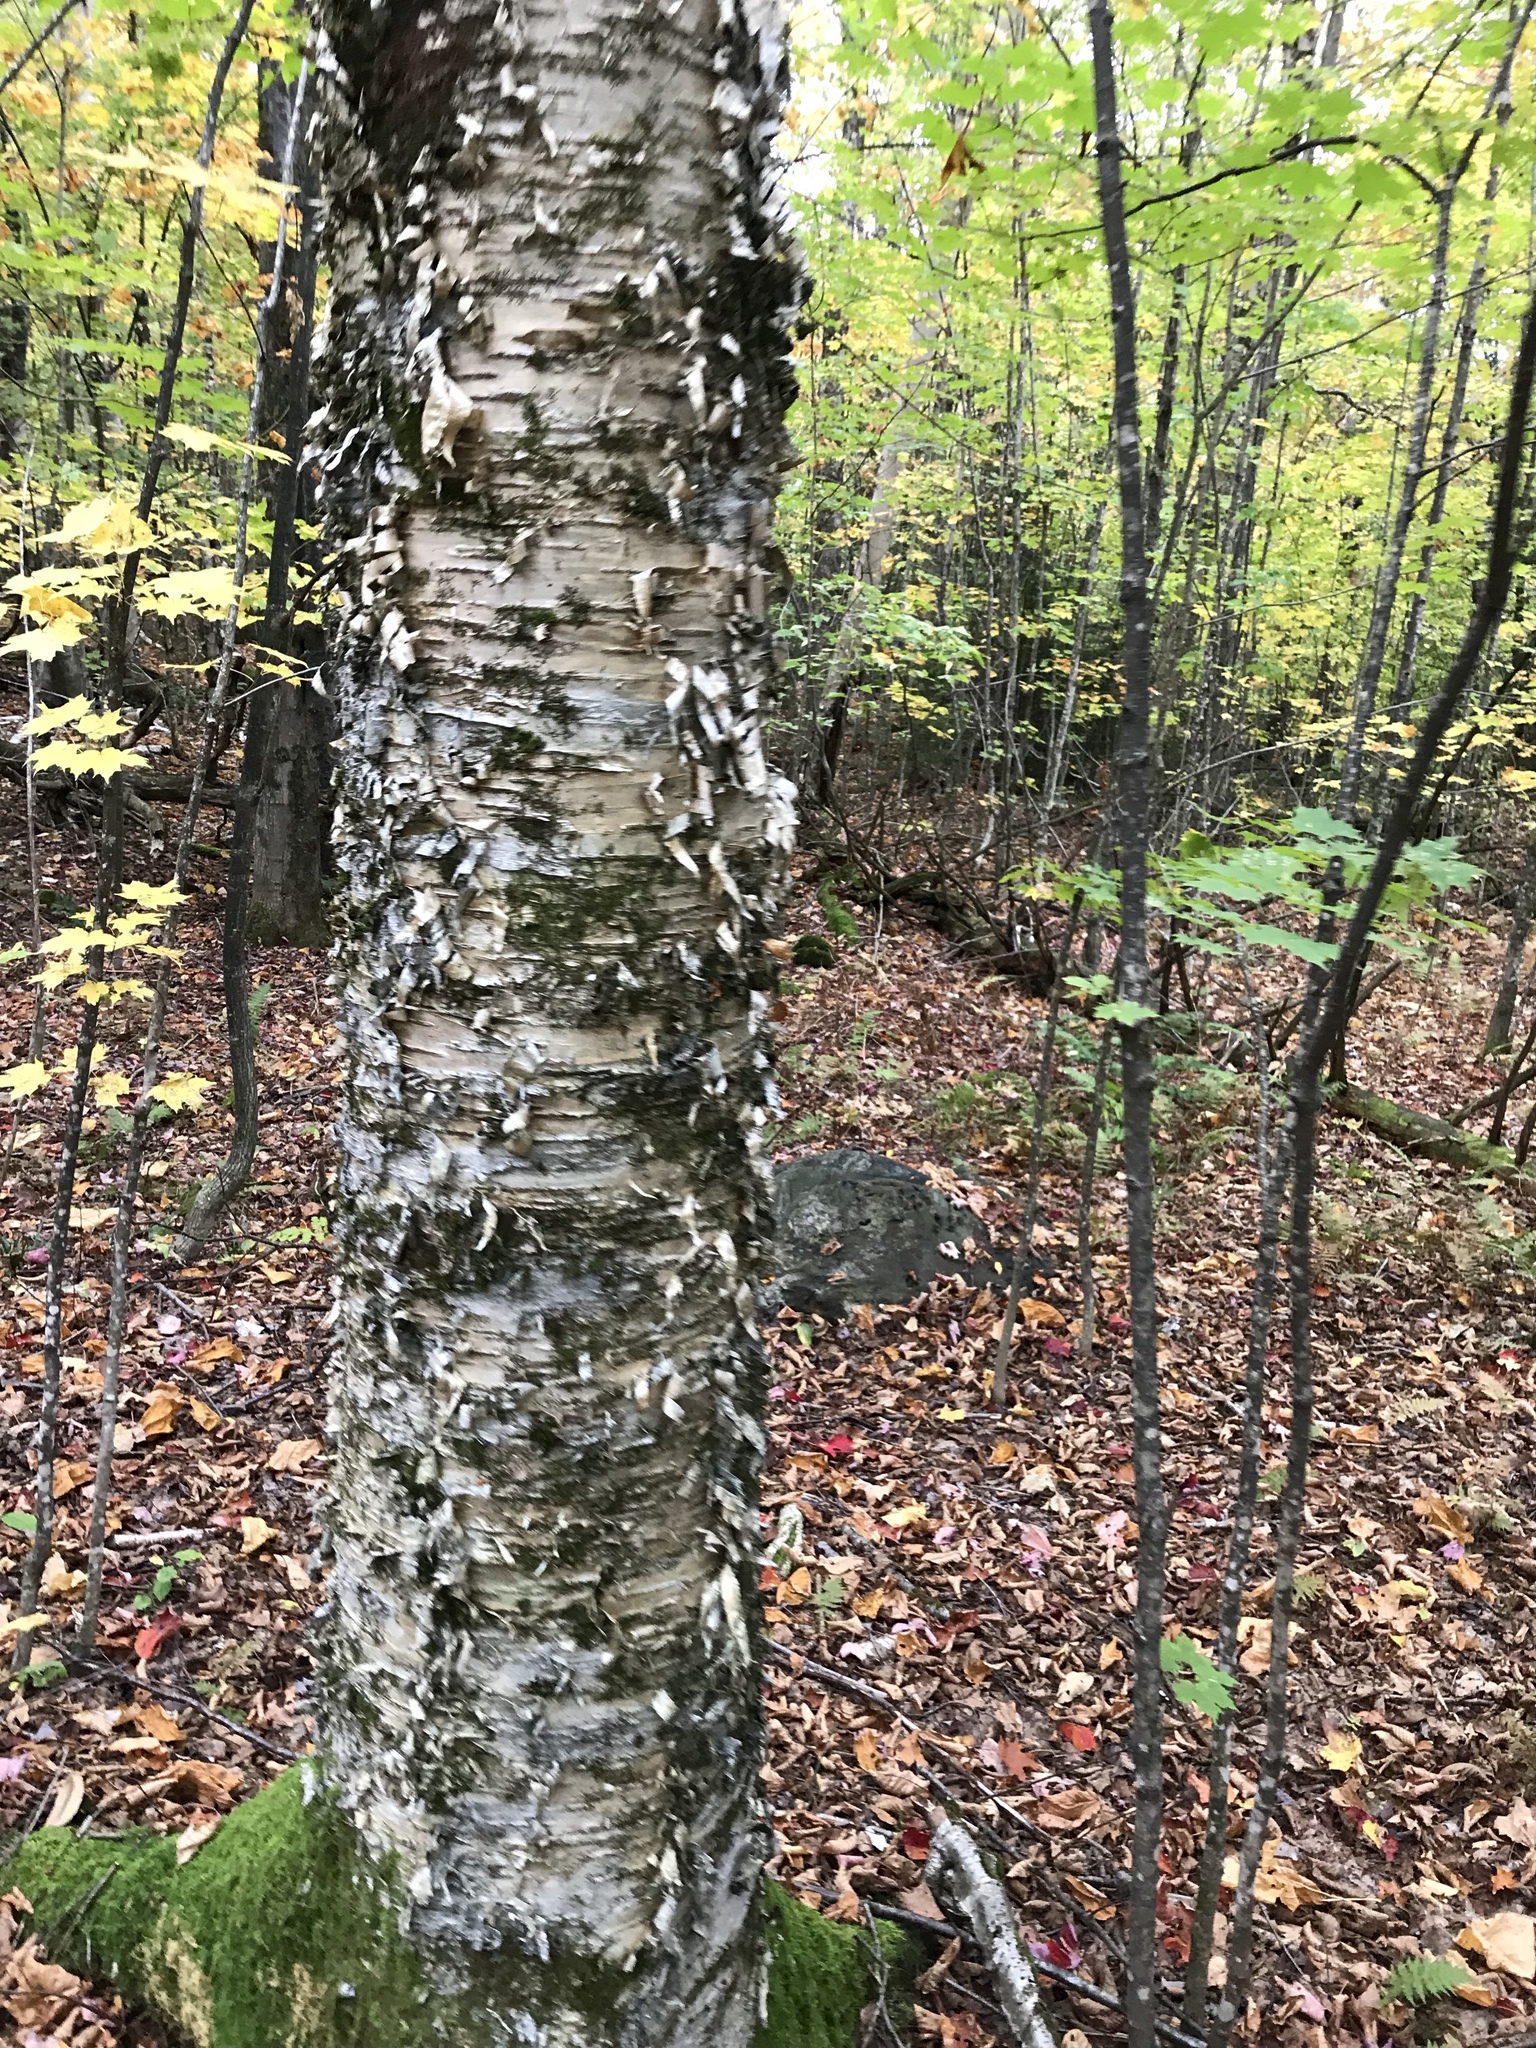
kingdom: Plantae
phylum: Tracheophyta
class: Magnoliopsida
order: Fagales
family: Betulaceae
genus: Betula
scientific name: Betula alleghaniensis
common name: Yellow birch
